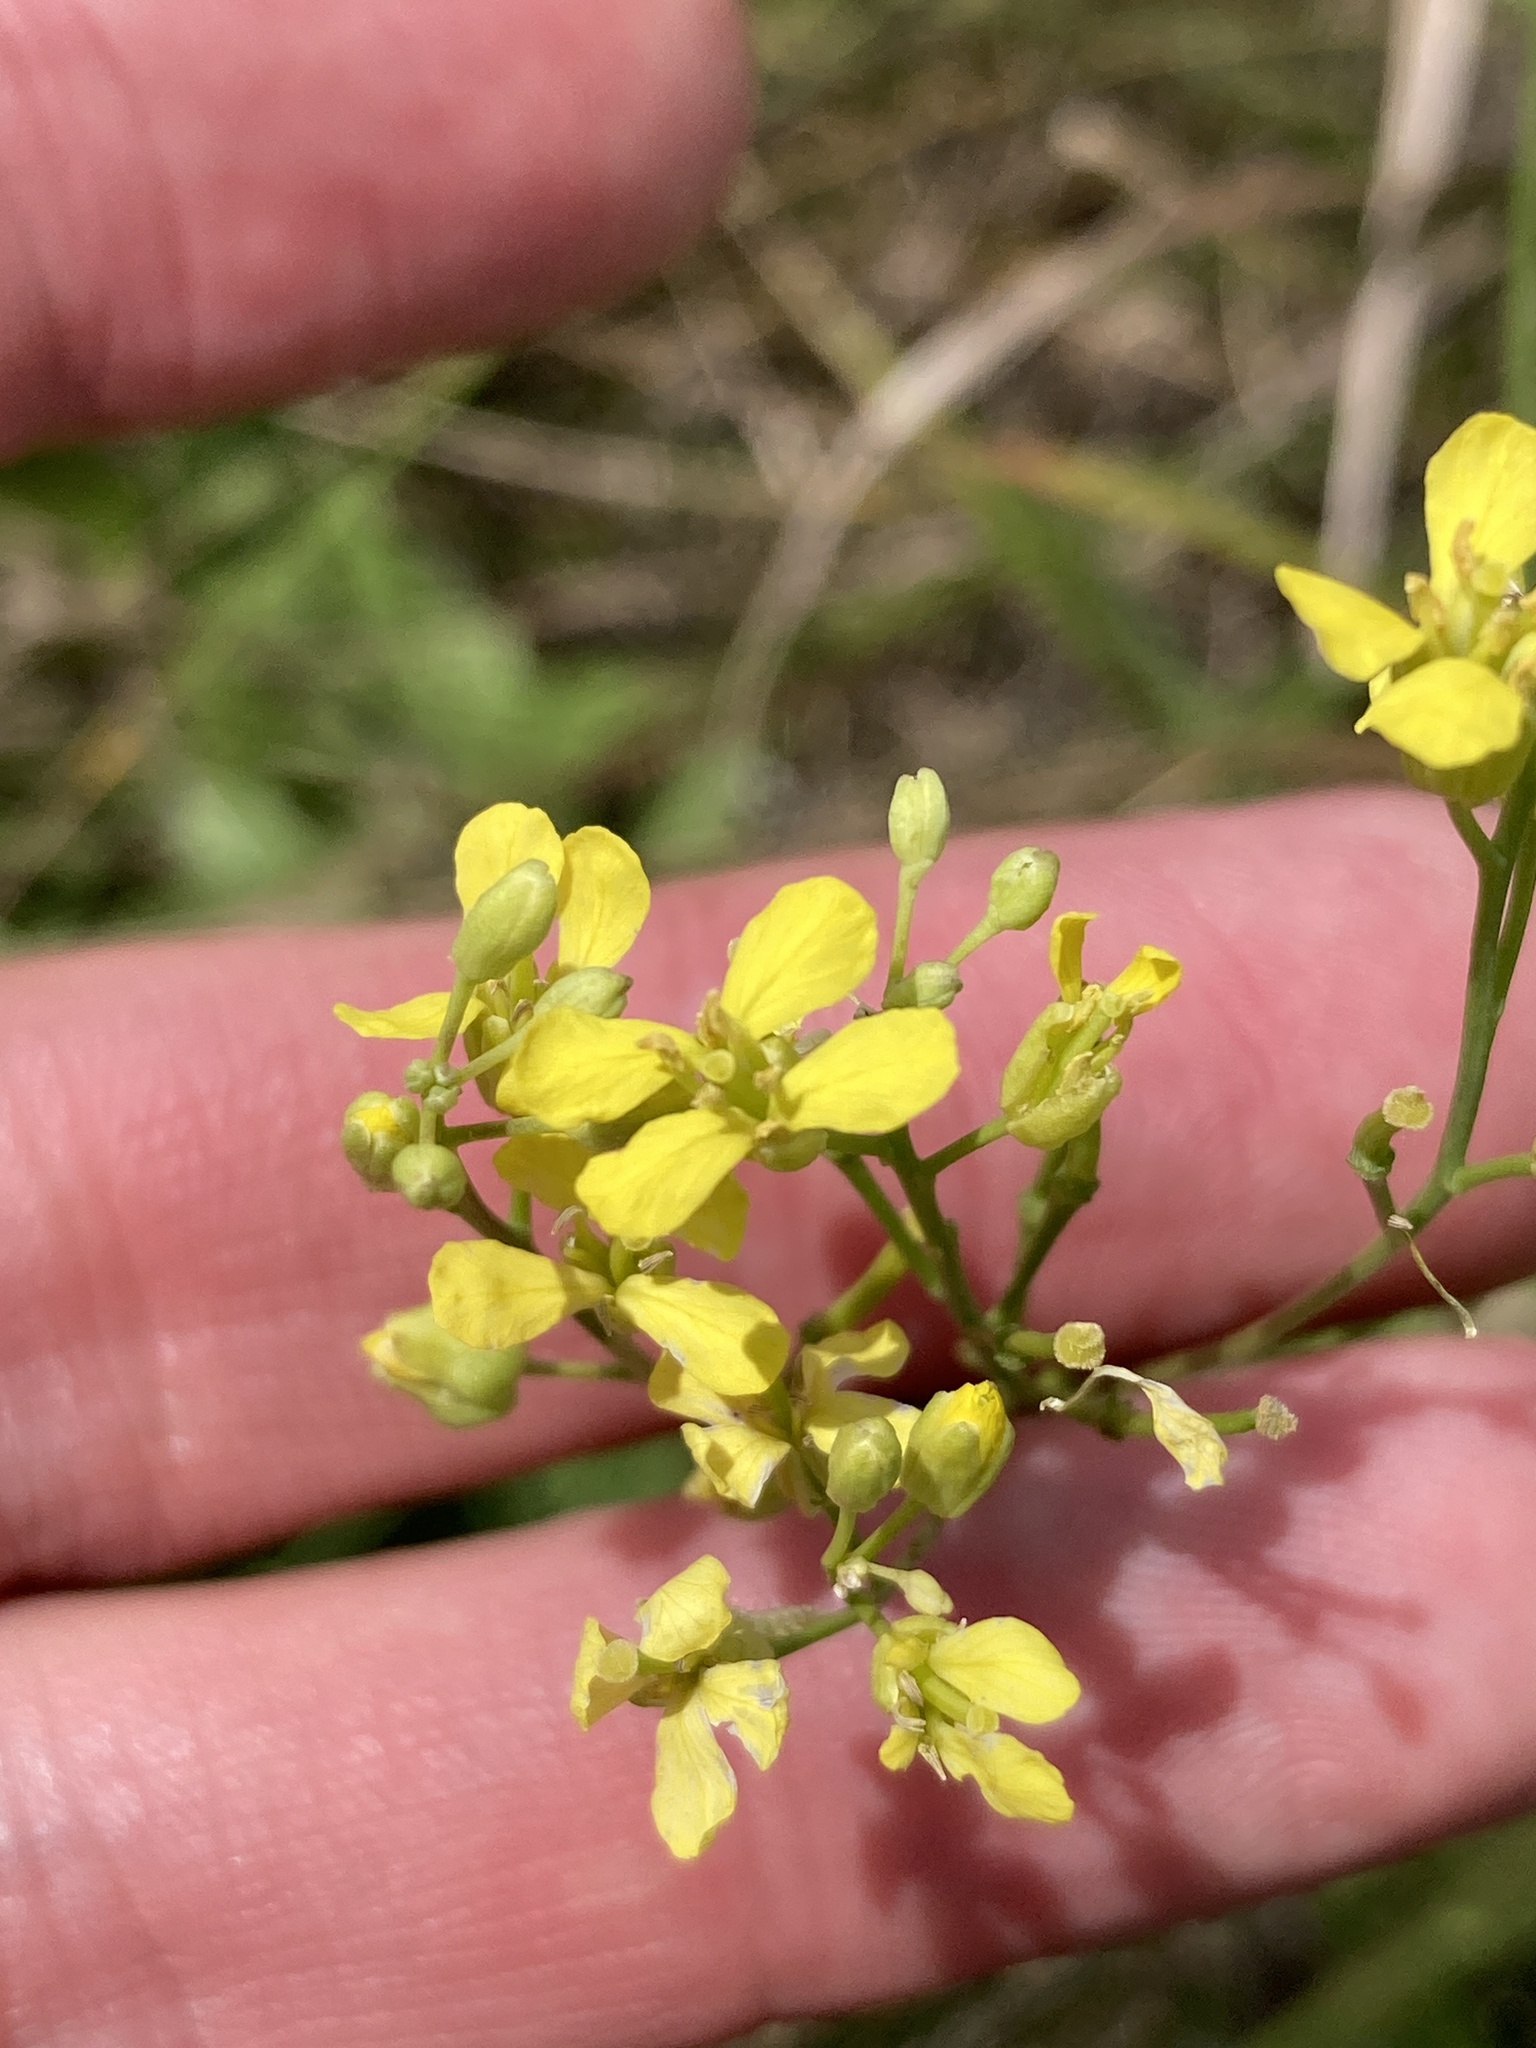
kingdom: Plantae
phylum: Tracheophyta
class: Magnoliopsida
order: Brassicales
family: Brassicaceae
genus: Sisymbrium
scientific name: Sisymbrium volgense
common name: Russian mustard
